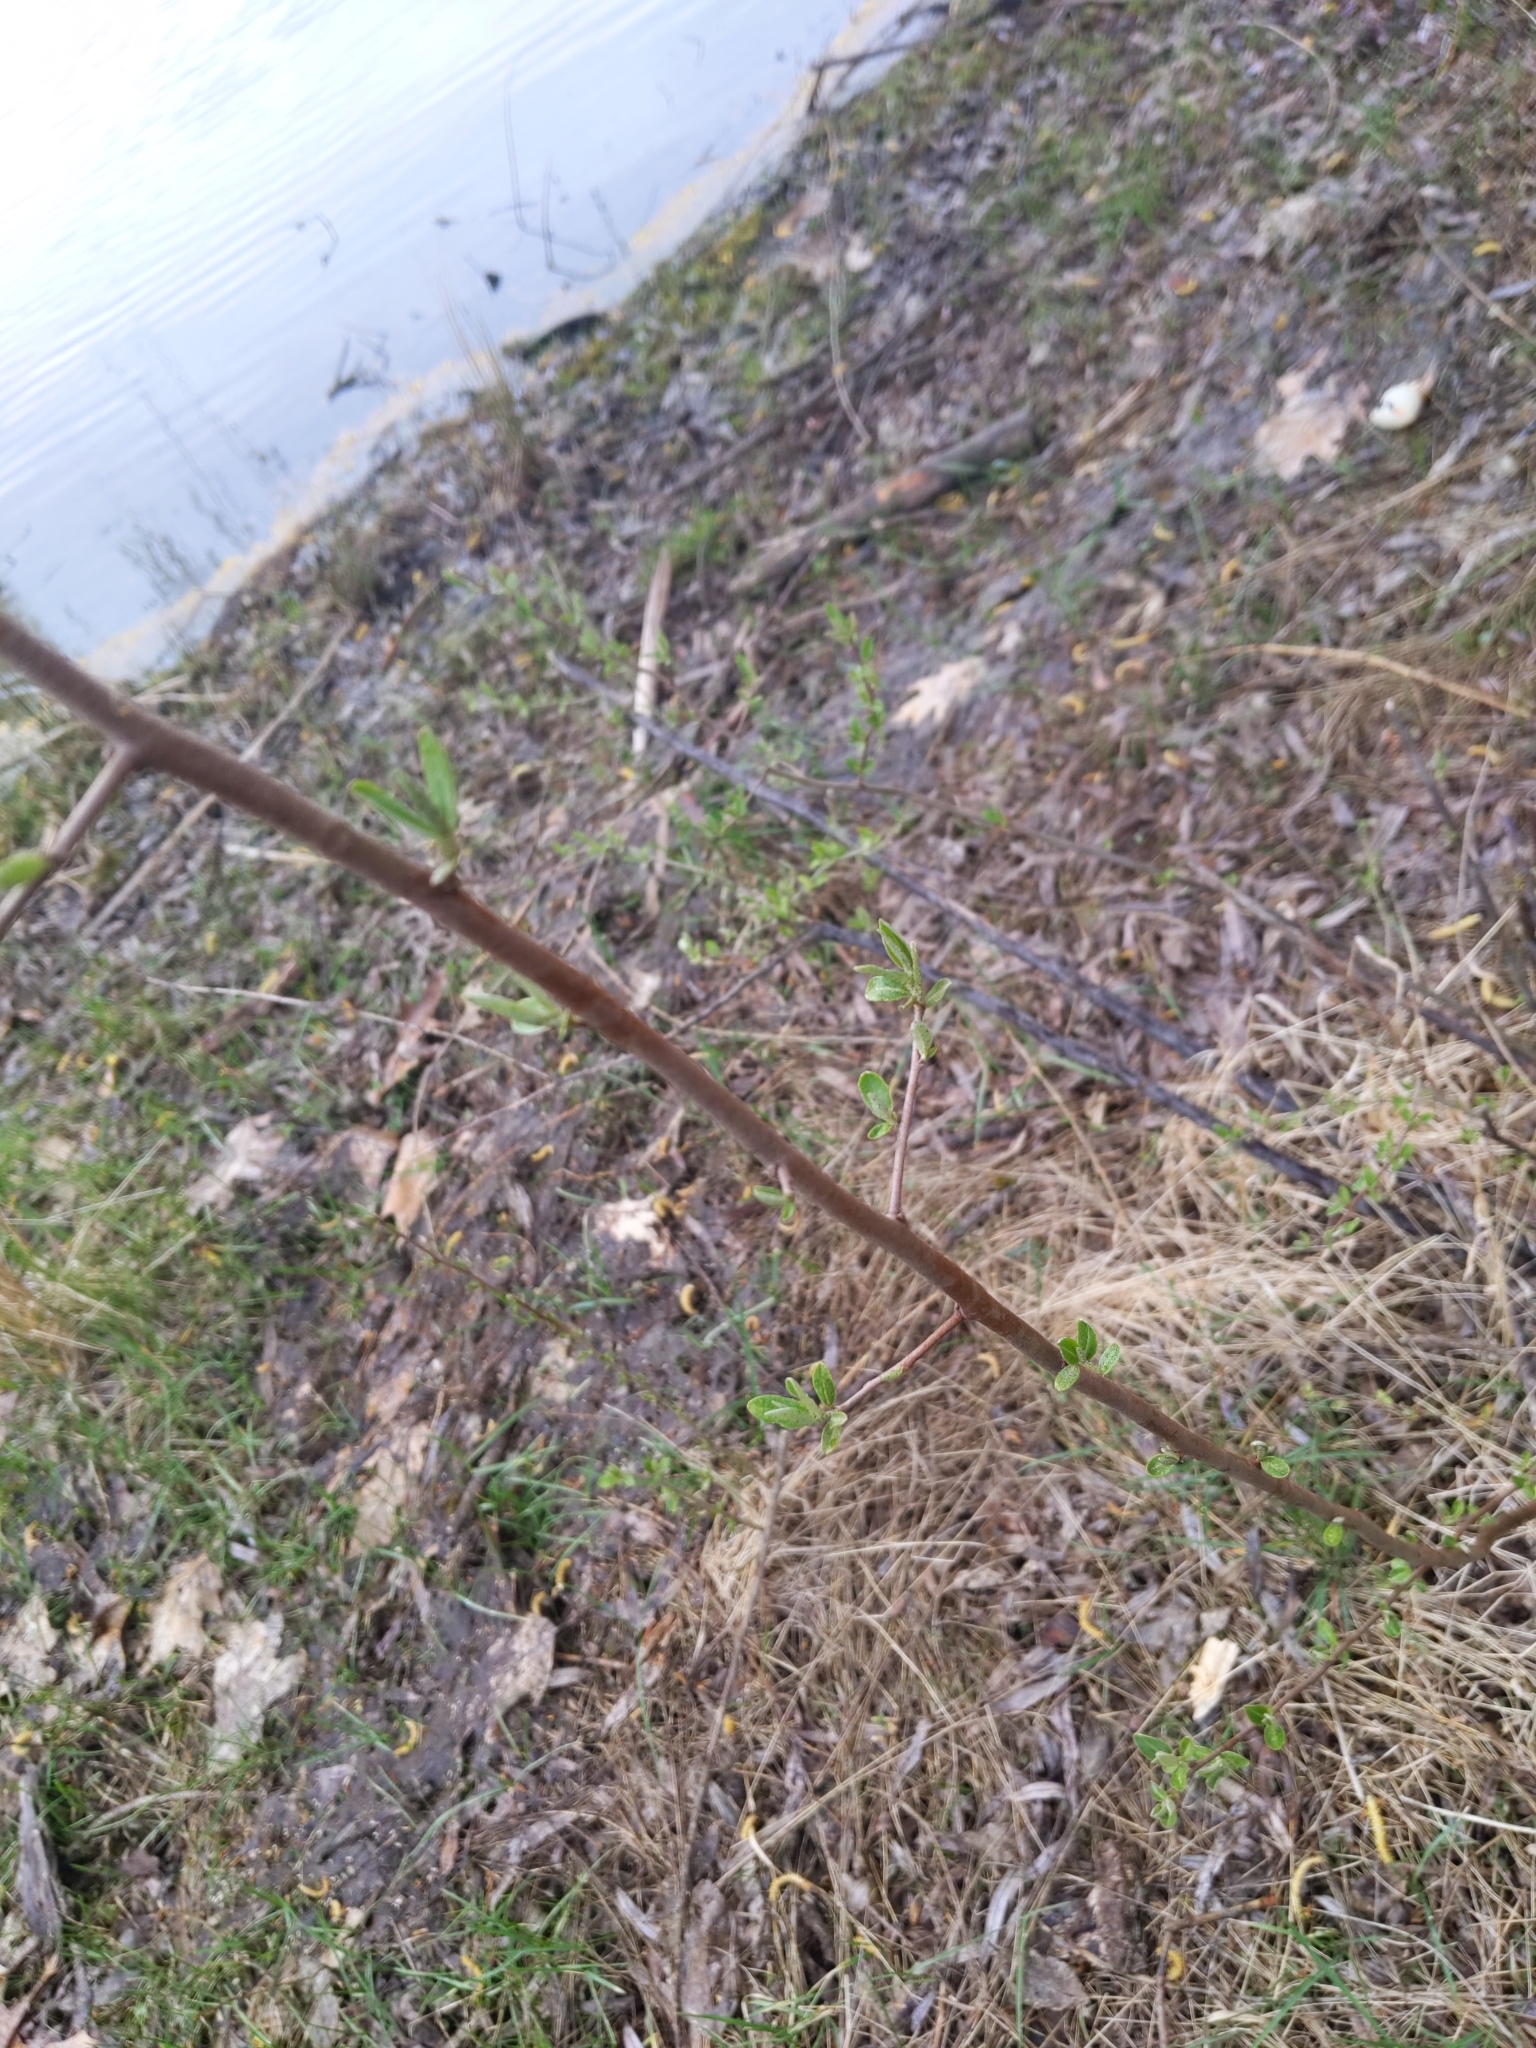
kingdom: Plantae
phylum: Tracheophyta
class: Magnoliopsida
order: Rosales
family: Elaeagnaceae
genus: Elaeagnus
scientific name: Elaeagnus umbellata
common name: Autumn olive
